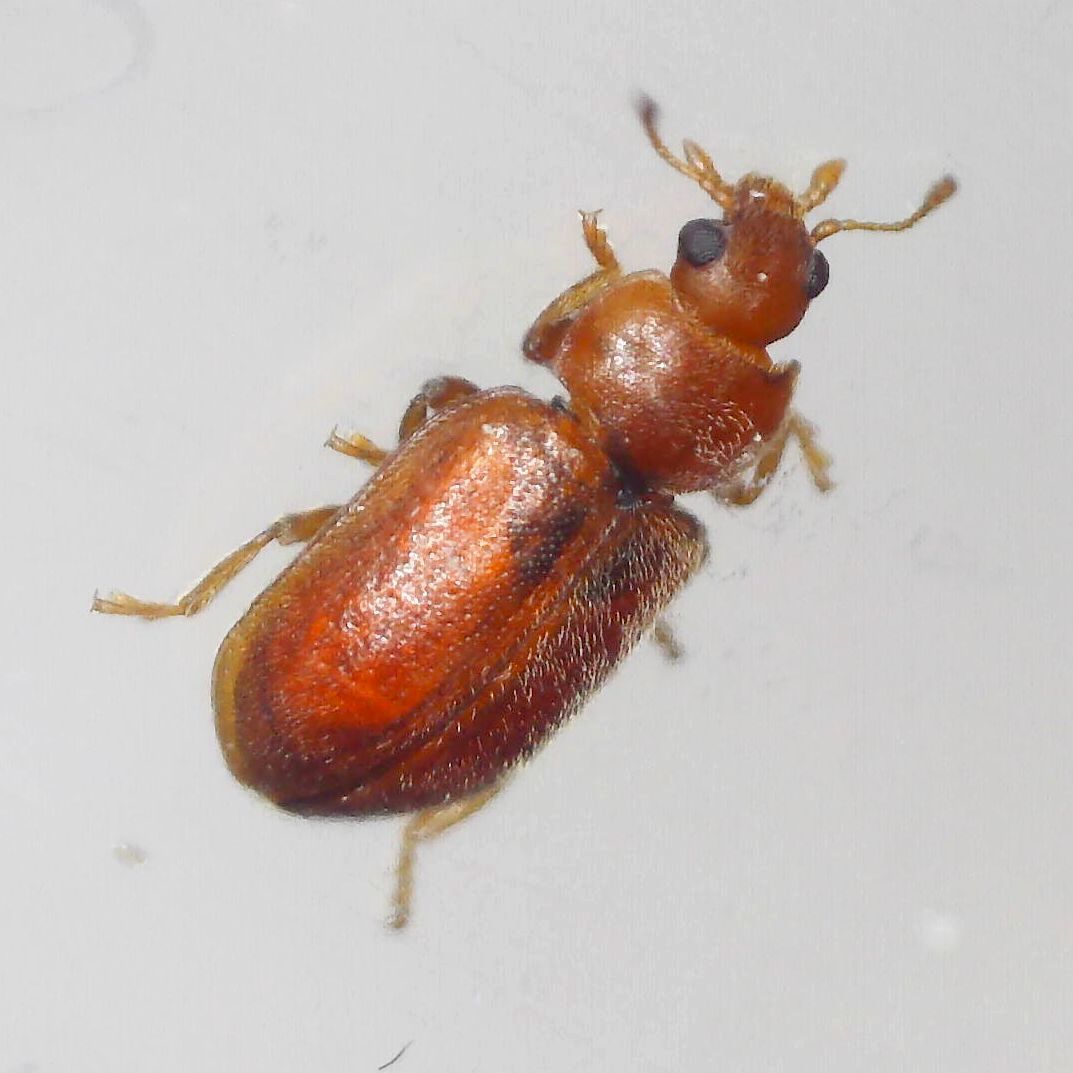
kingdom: Animalia
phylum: Arthropoda
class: Insecta
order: Coleoptera
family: Coccinellidae
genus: Coccidula
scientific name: Coccidula rufa
